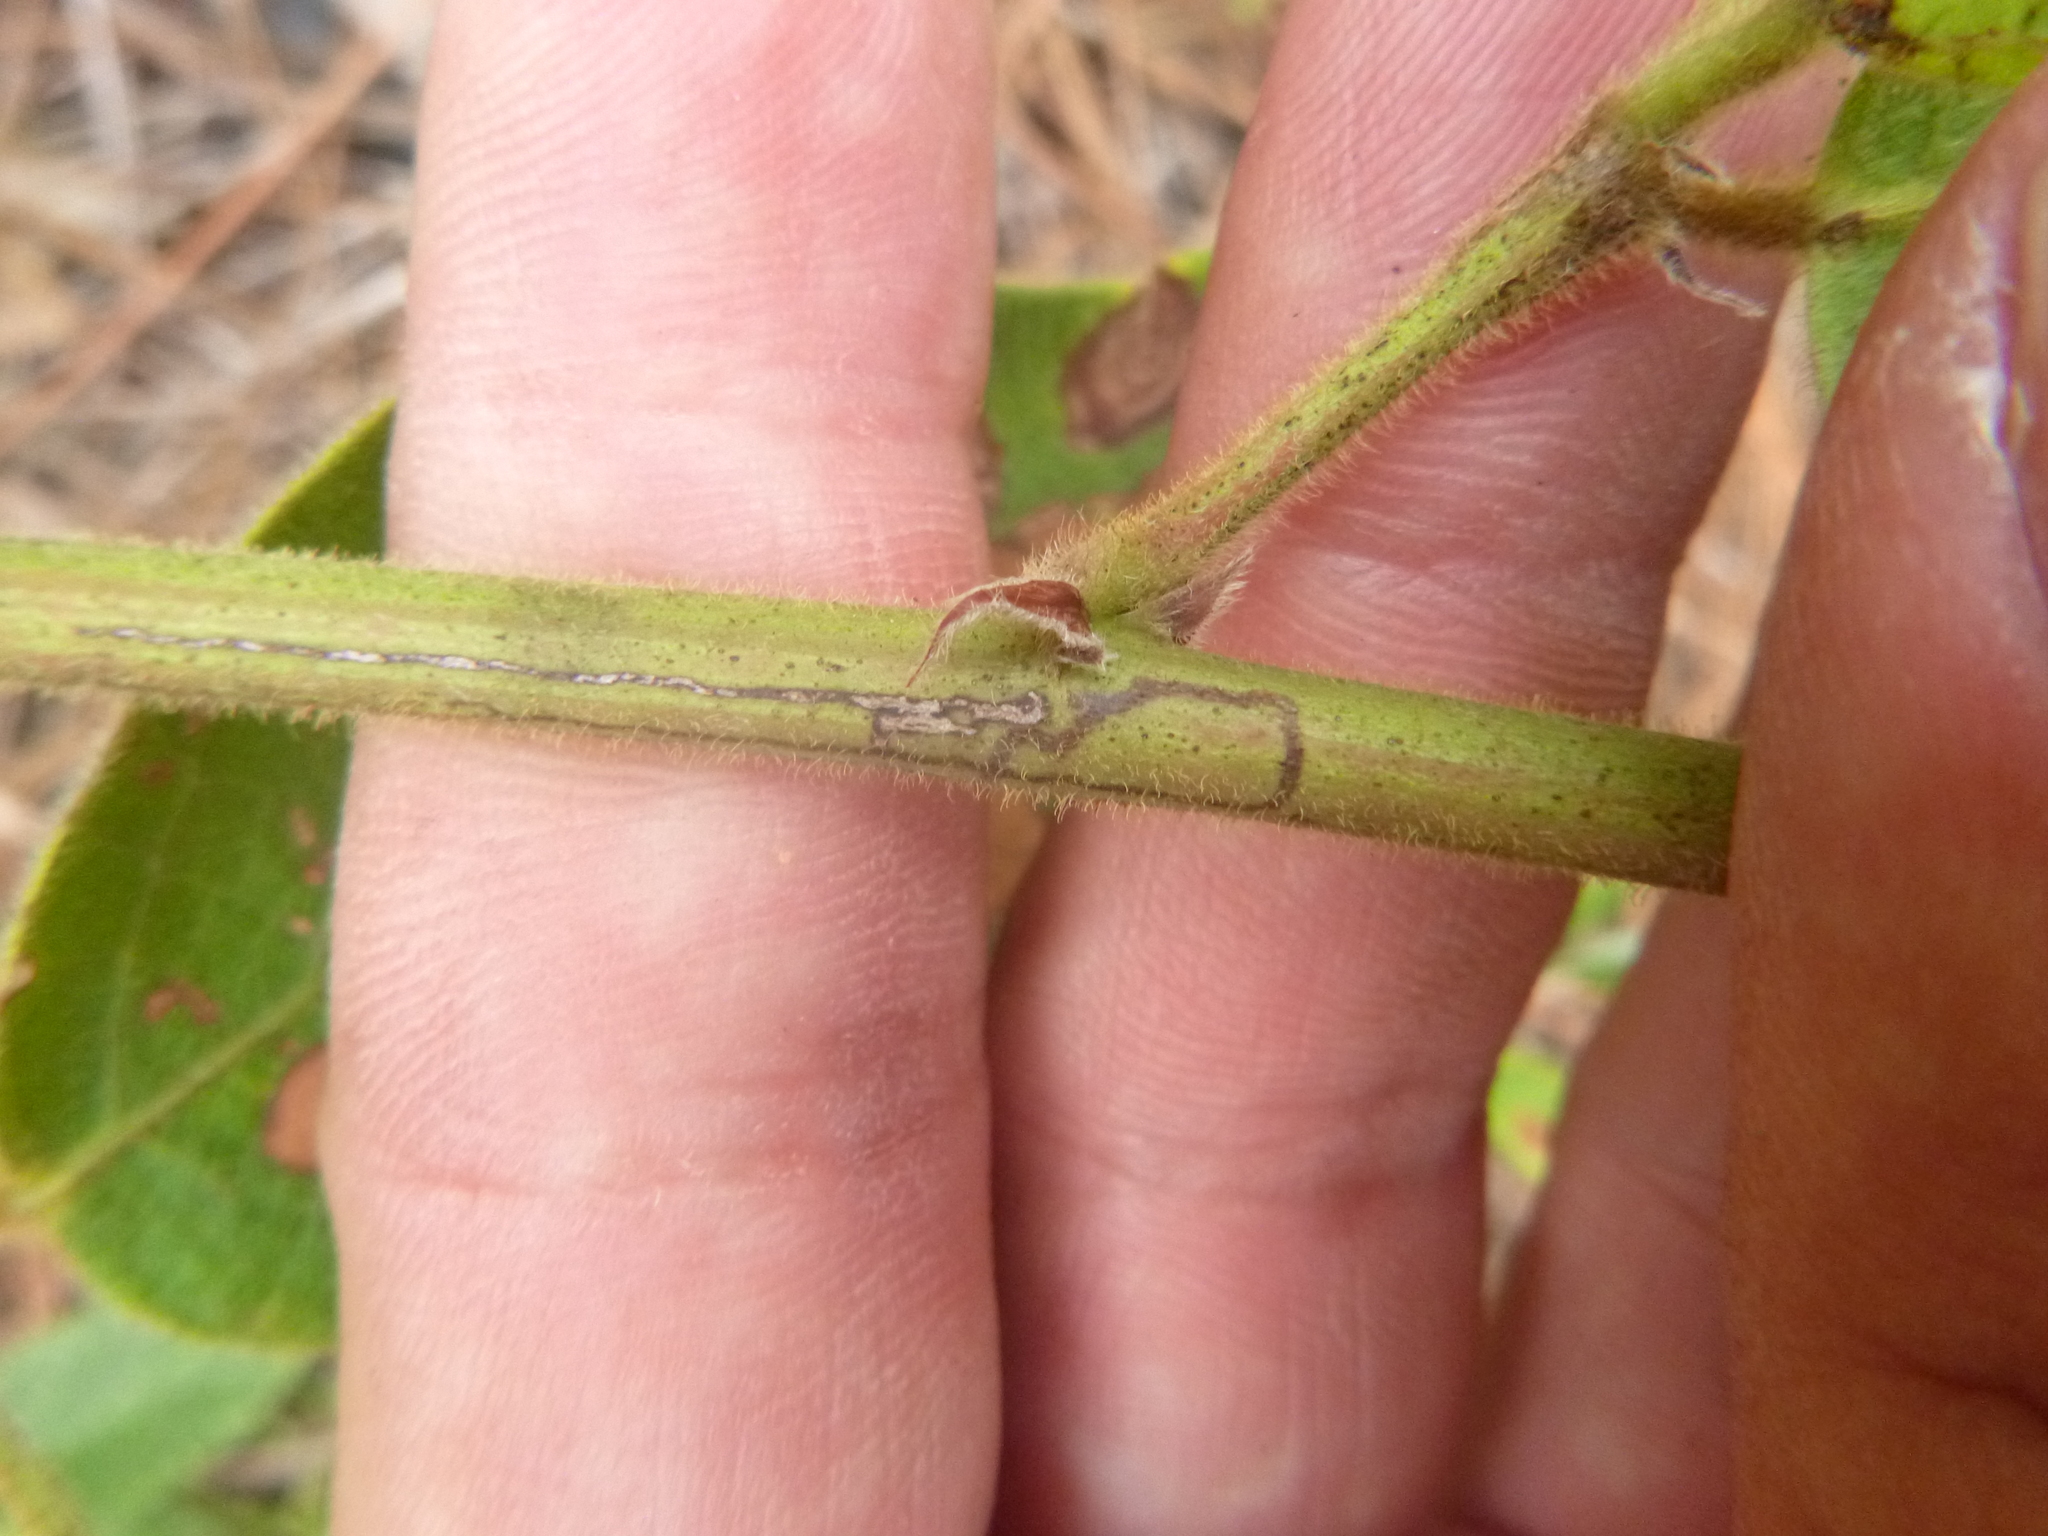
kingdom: Plantae
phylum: Tracheophyta
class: Magnoliopsida
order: Fabales
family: Fabaceae
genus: Desmodium
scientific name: Desmodium nuttallii
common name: Nuttall's tick trefoil
